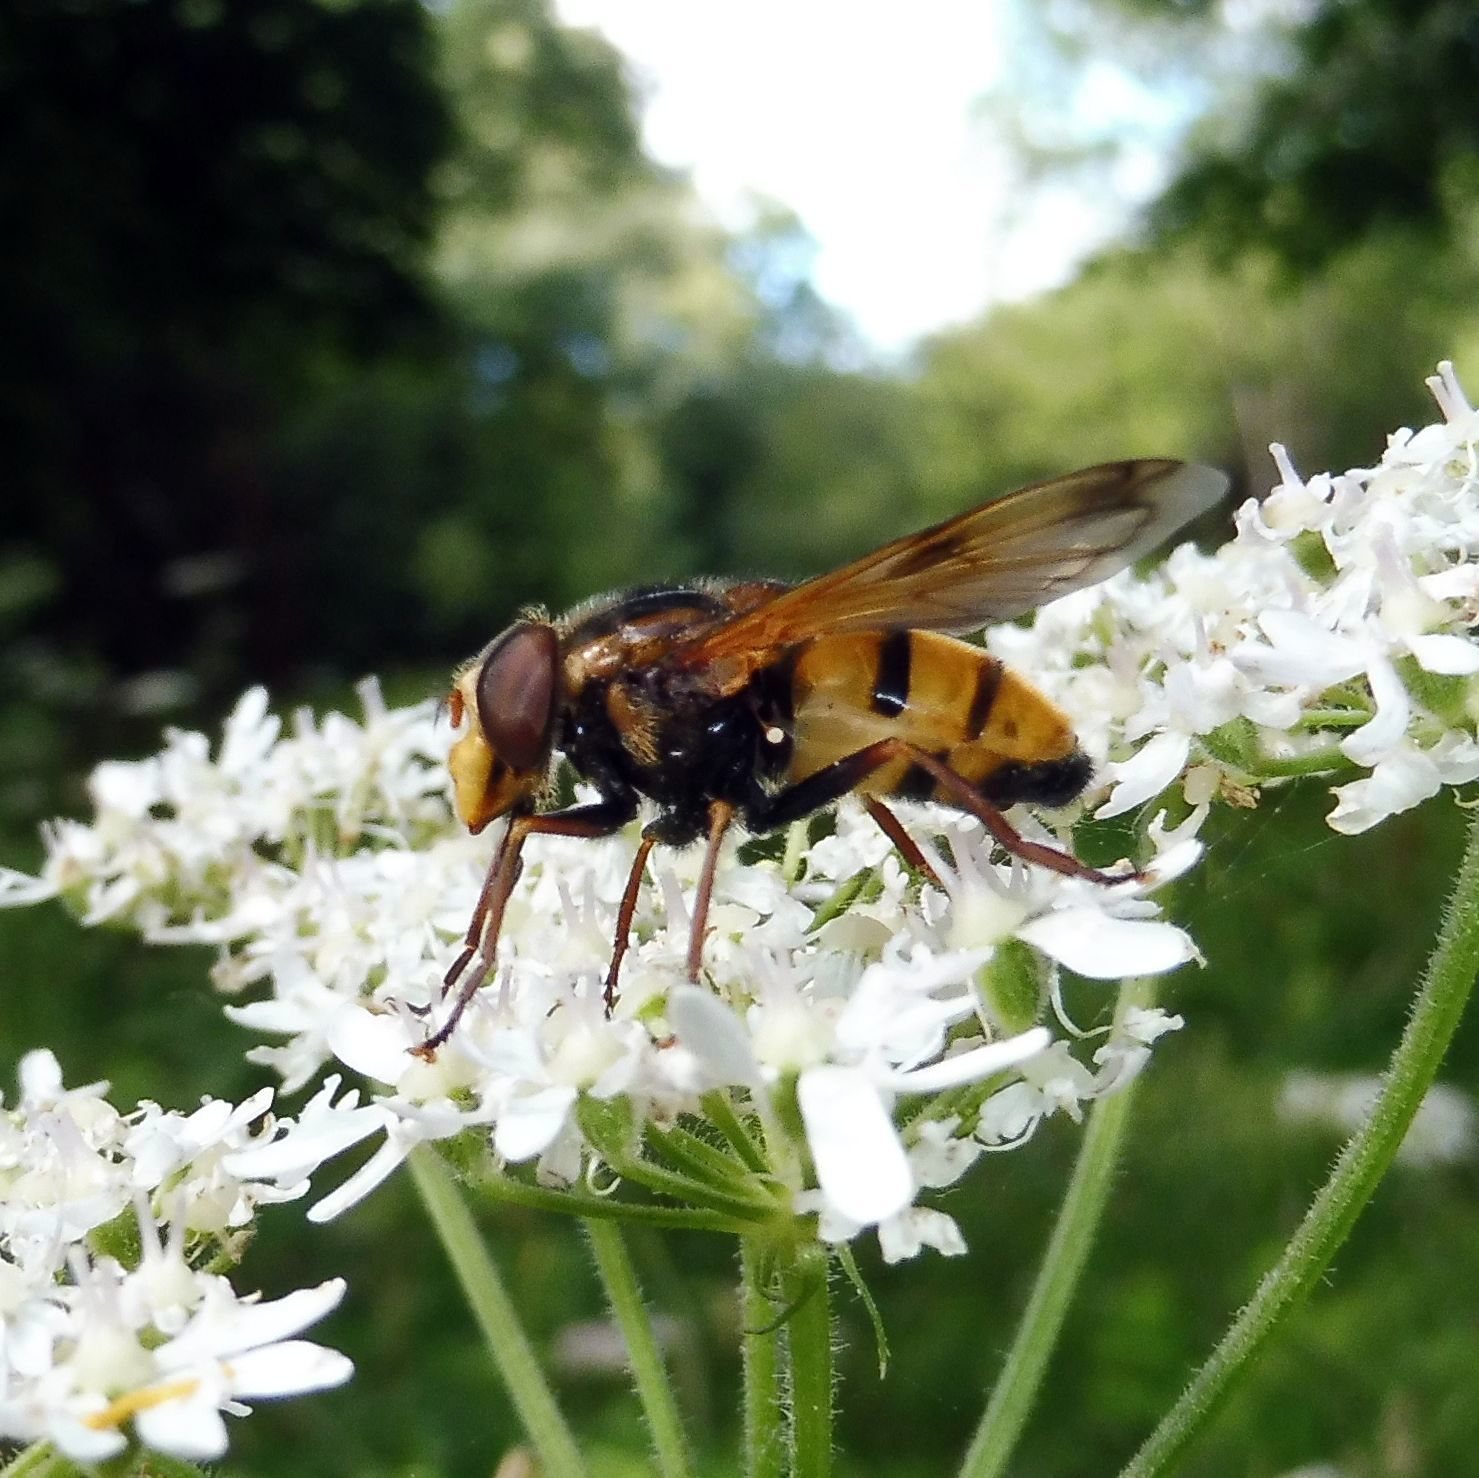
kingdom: Animalia
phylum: Arthropoda
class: Insecta
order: Diptera
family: Syrphidae
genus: Volucella
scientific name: Volucella inanis
